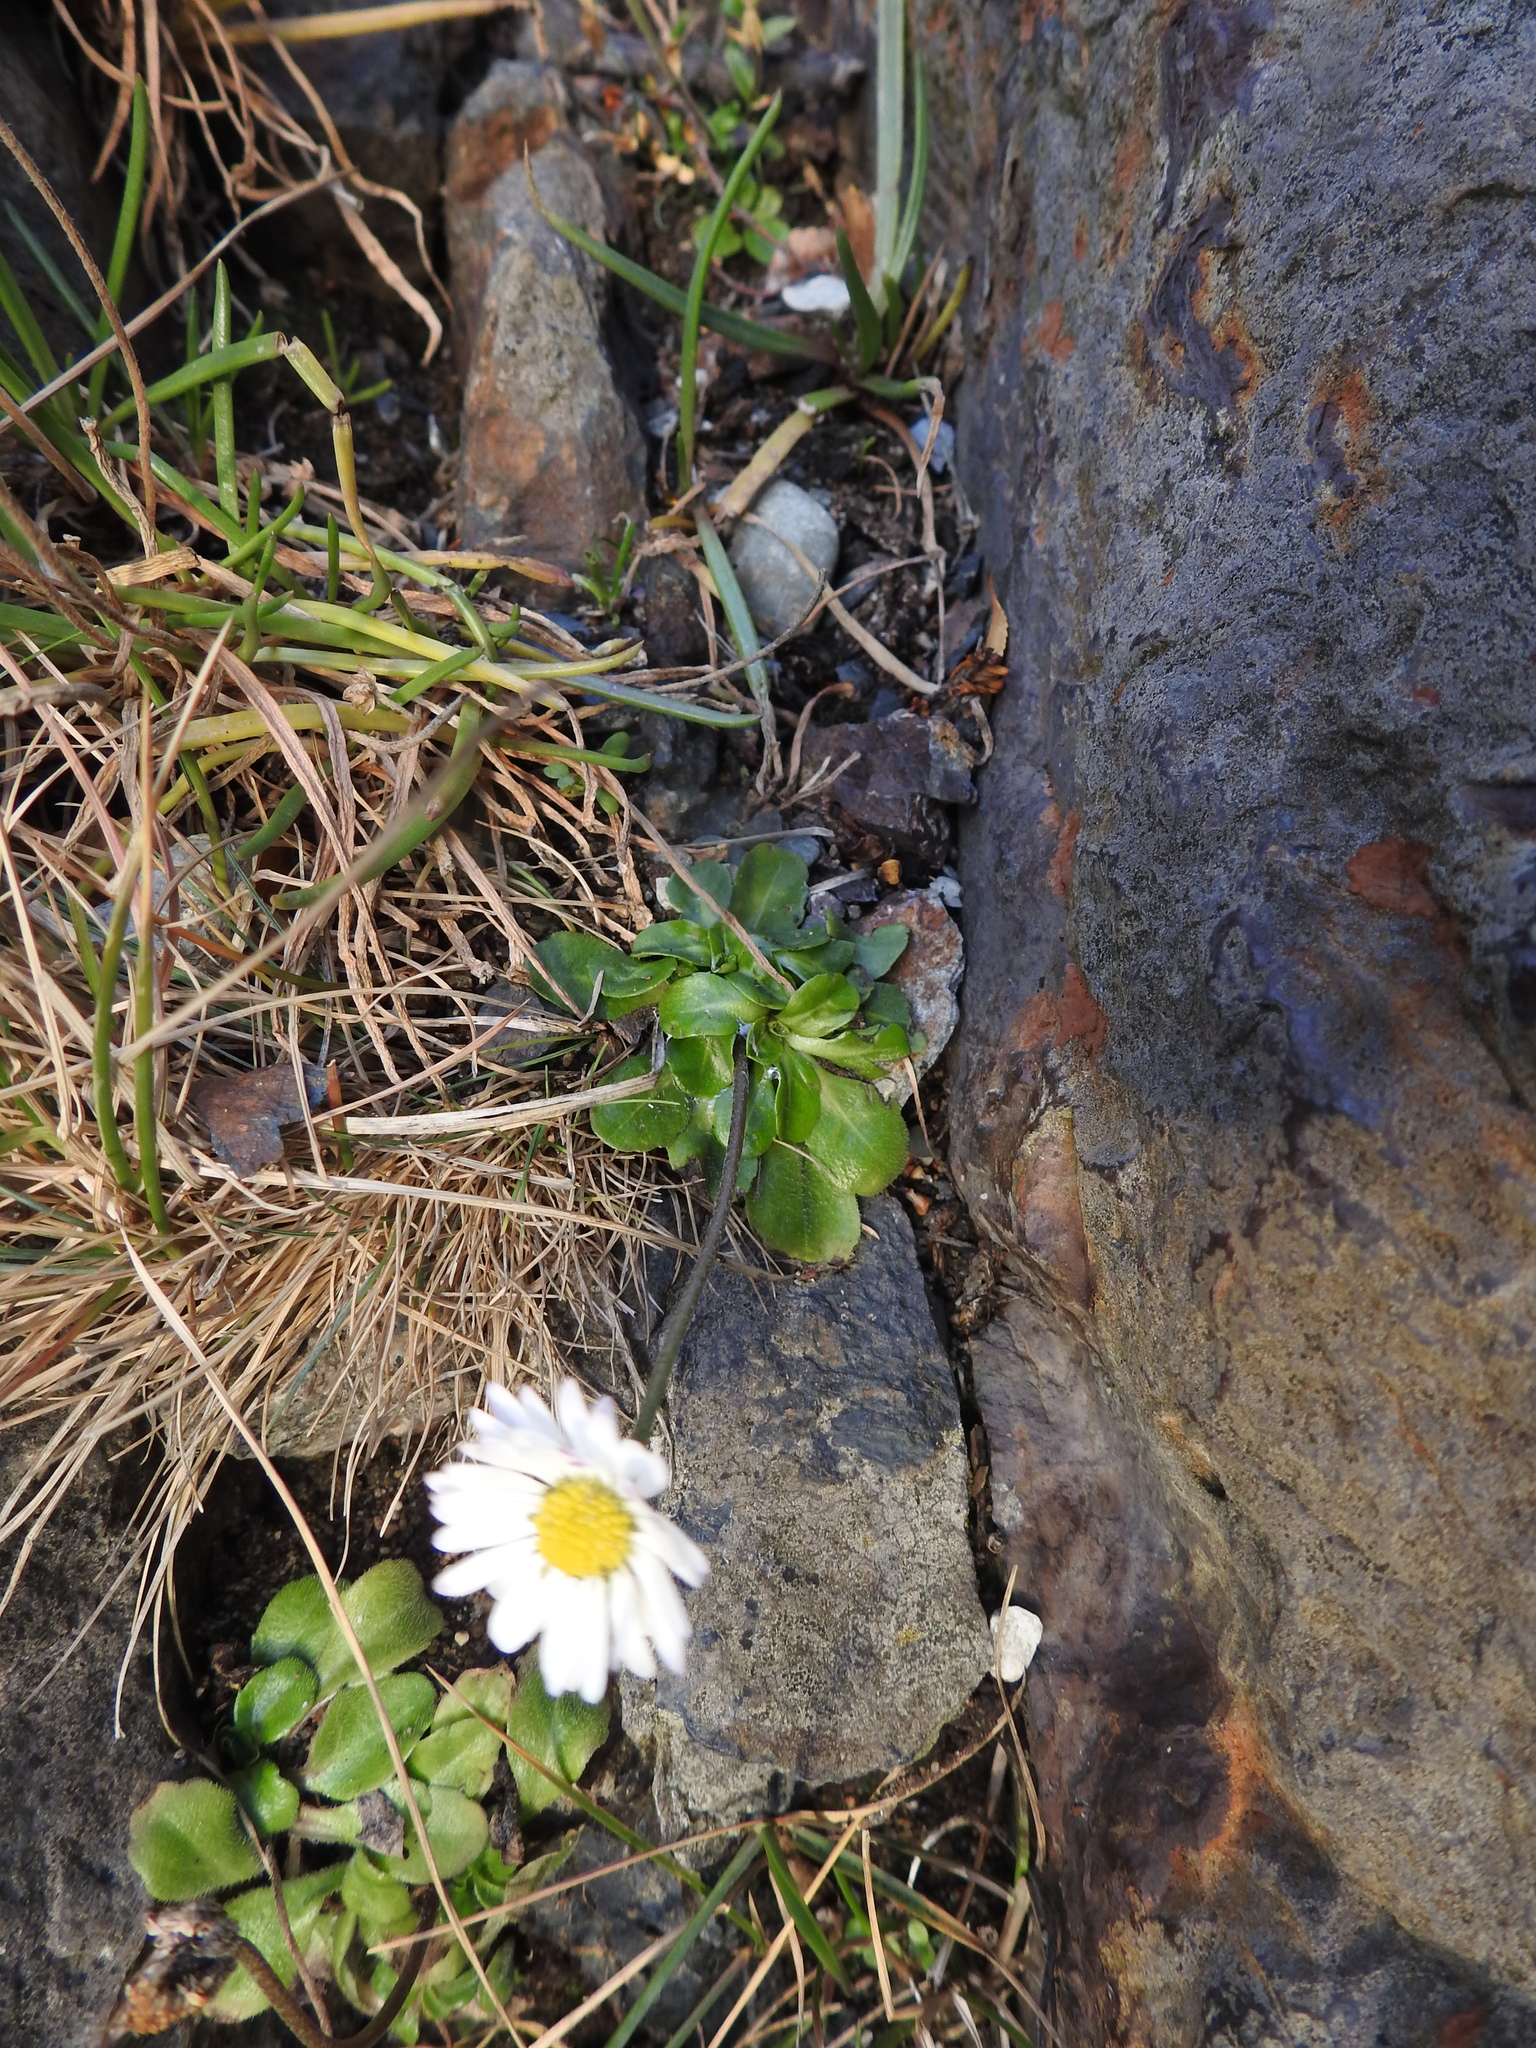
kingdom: Plantae
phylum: Tracheophyta
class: Magnoliopsida
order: Asterales
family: Asteraceae
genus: Bellis
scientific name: Bellis perennis
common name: Lawndaisy
